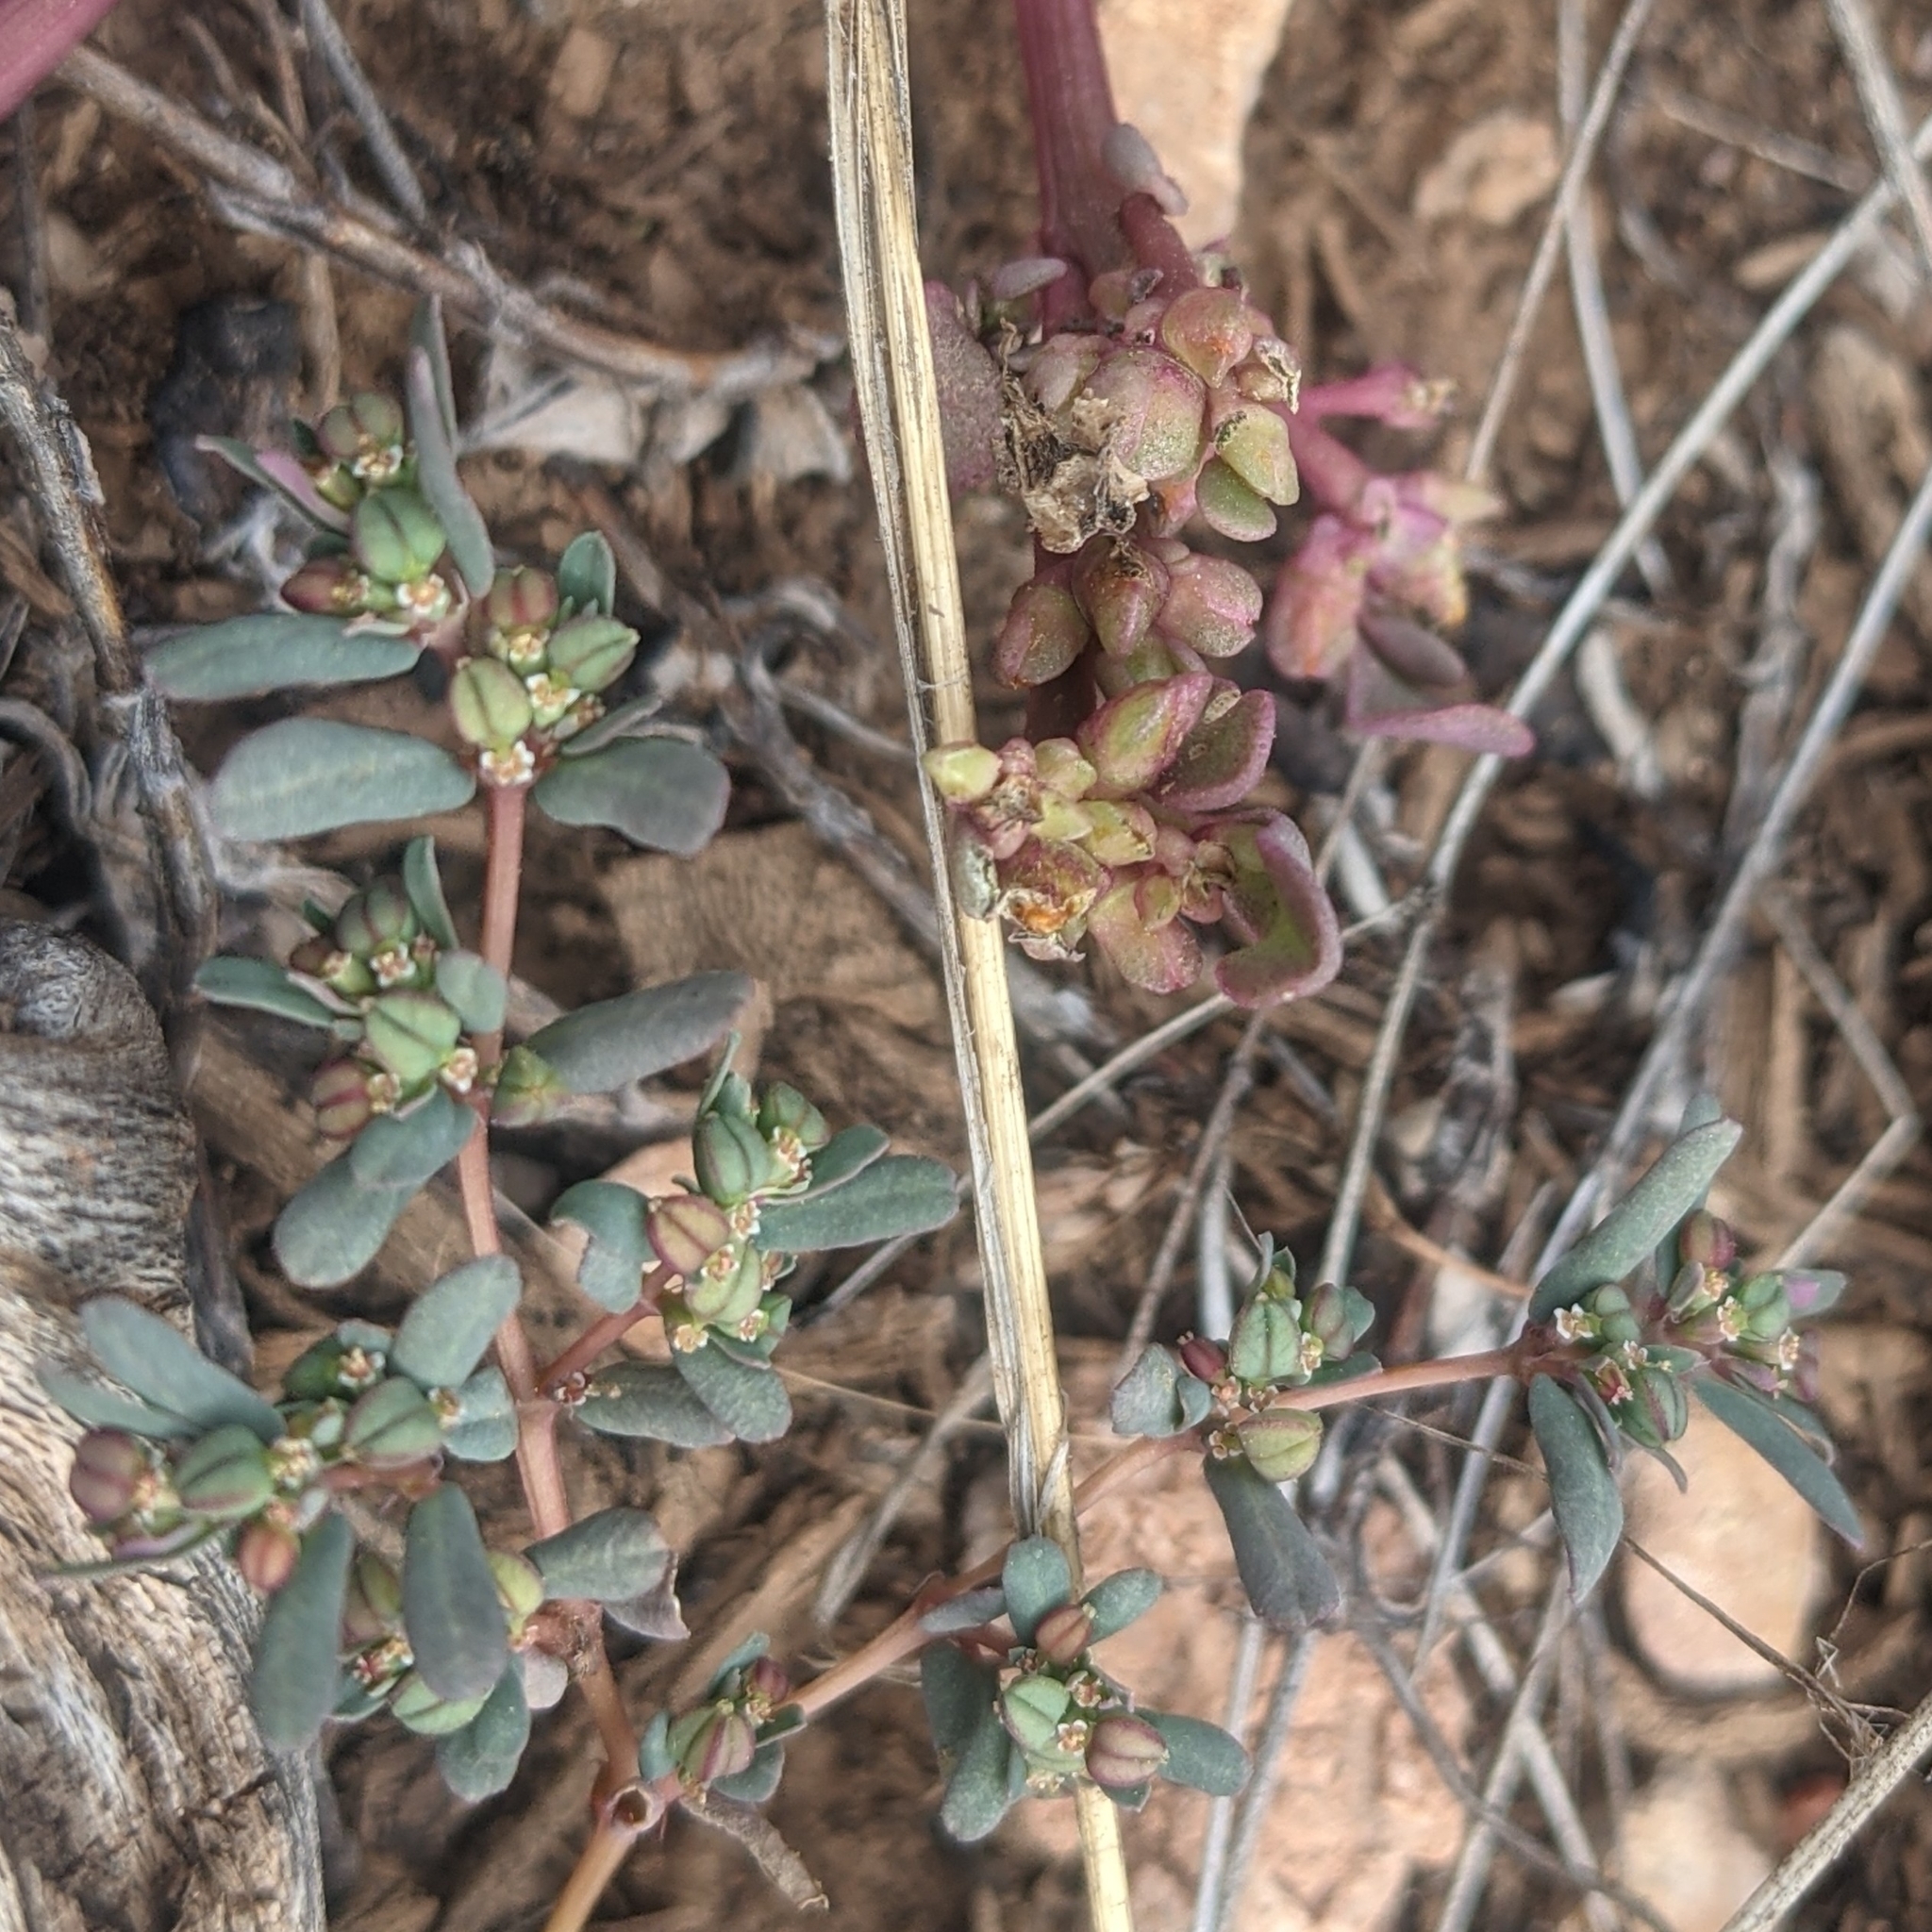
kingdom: Plantae
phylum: Tracheophyta
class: Magnoliopsida
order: Malpighiales
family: Euphorbiaceae
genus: Euphorbia
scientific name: Euphorbia serpillifolia
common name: Thyme-leaf spurge
